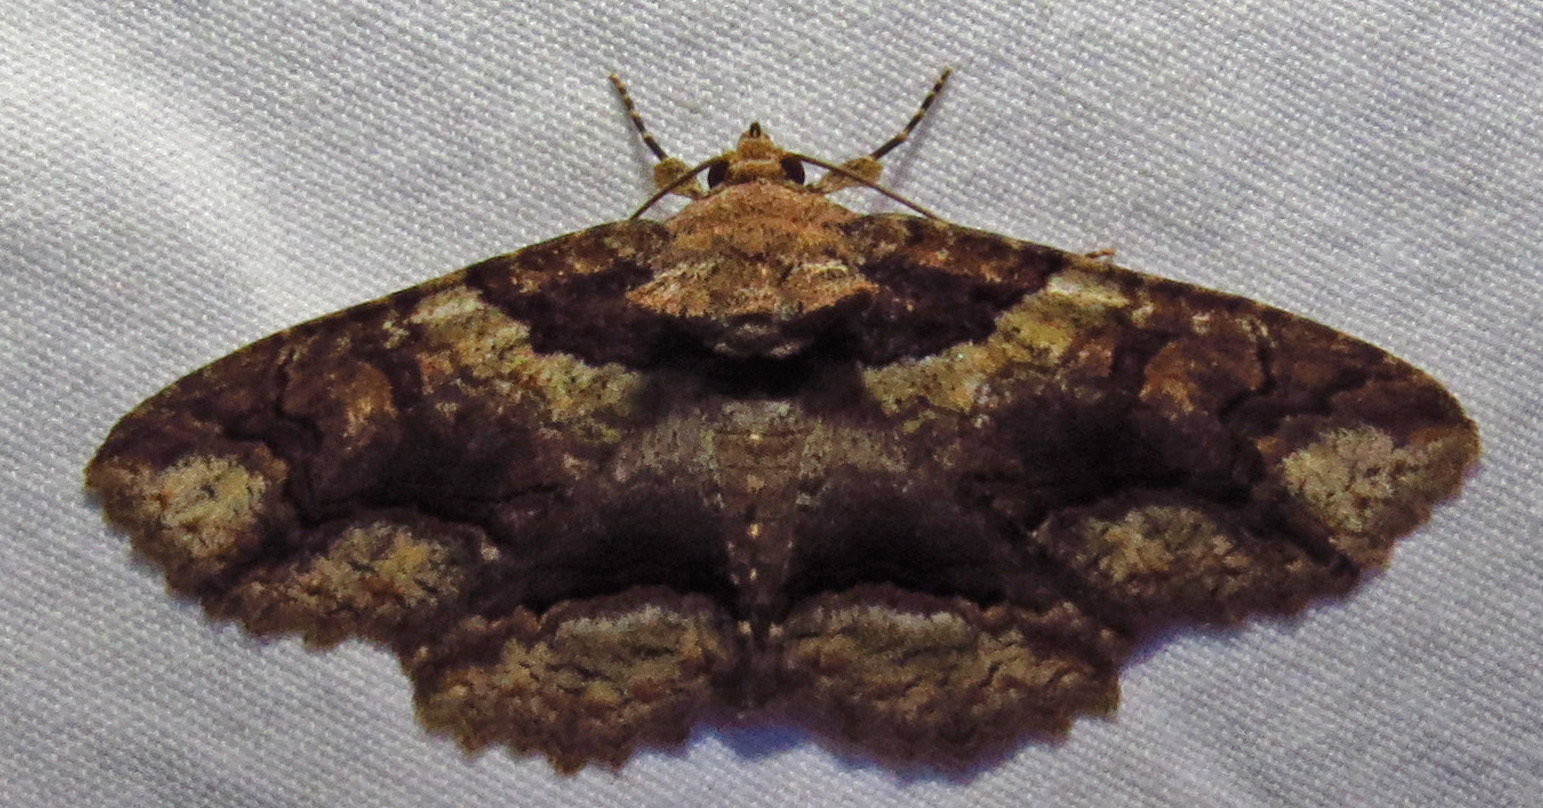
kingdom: Animalia
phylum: Arthropoda
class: Insecta
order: Lepidoptera
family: Erebidae
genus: Zale
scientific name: Zale galbanata
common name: Maple zale
